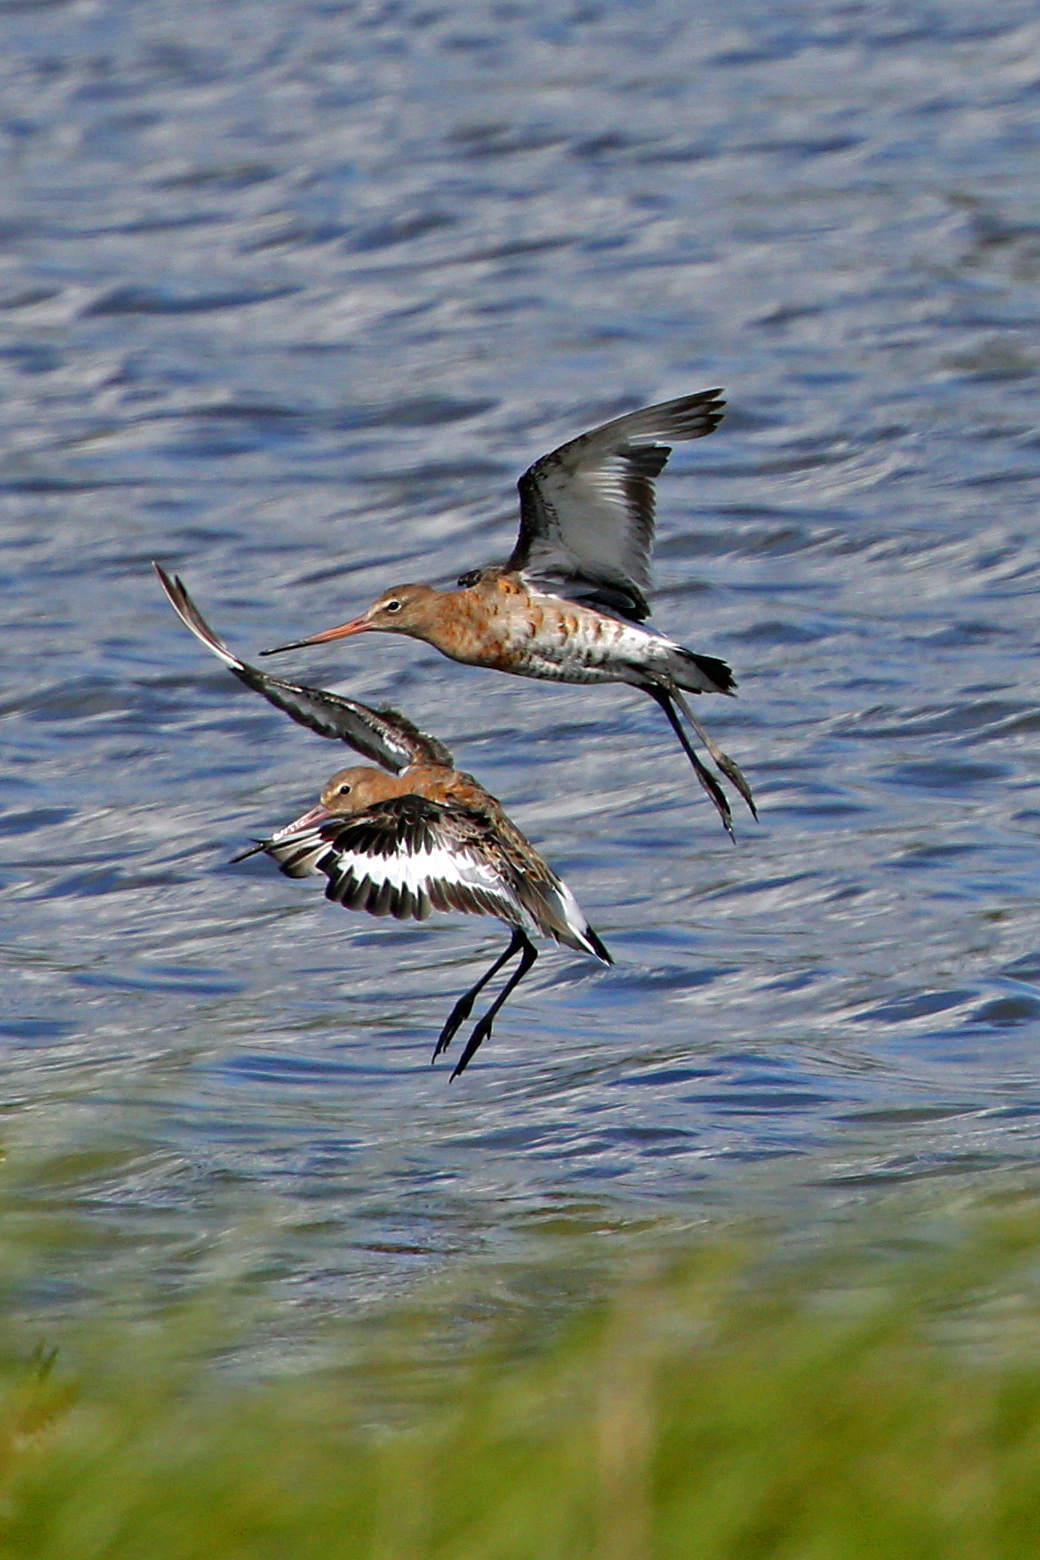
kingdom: Animalia
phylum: Chordata
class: Aves
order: Charadriiformes
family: Scolopacidae
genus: Limosa
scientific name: Limosa limosa
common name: Black-tailed godwit
